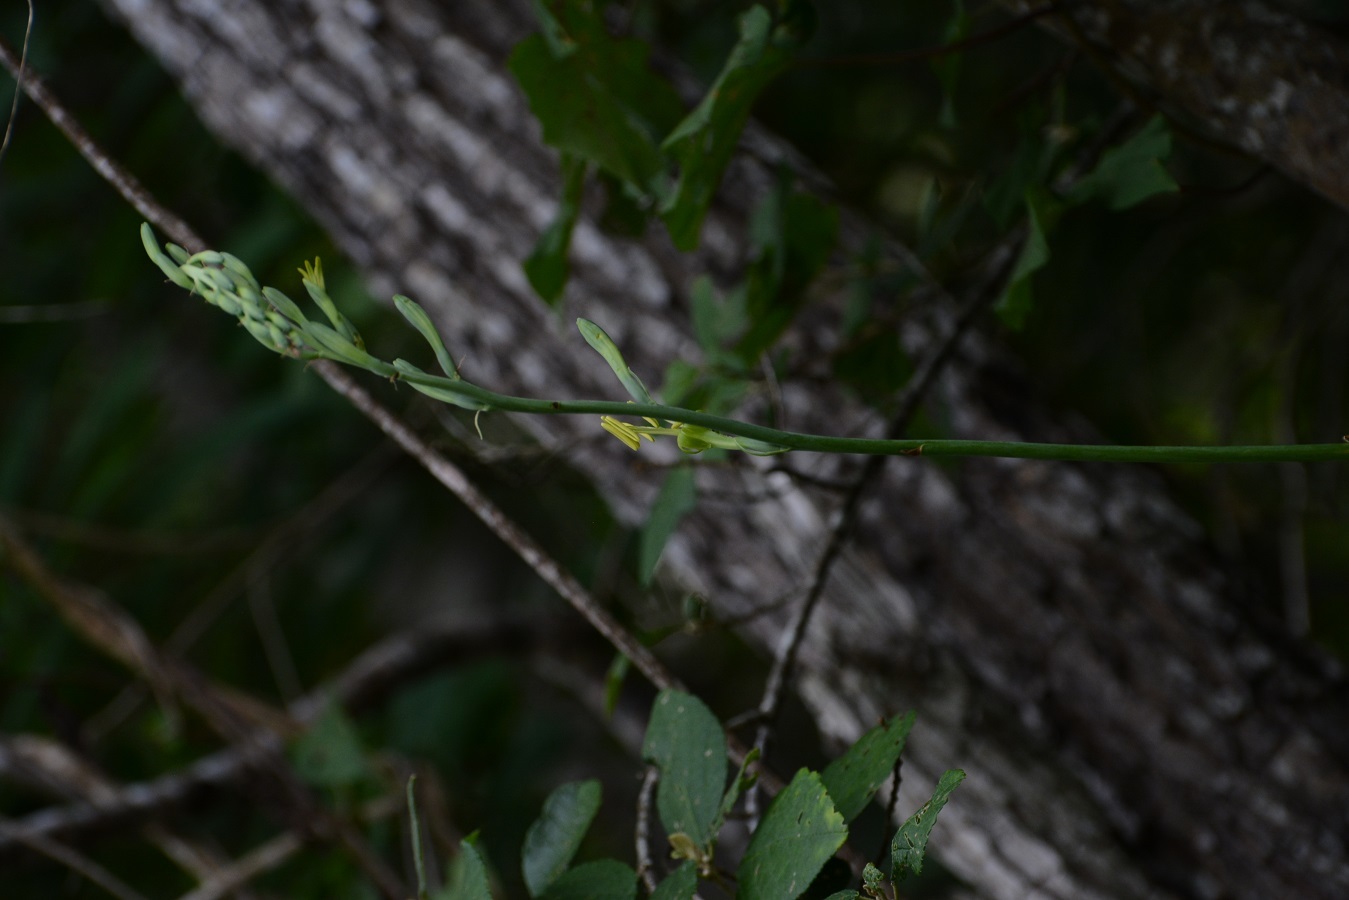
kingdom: Plantae
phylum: Tracheophyta
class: Liliopsida
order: Asparagales
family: Asparagaceae
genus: Agave
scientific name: Agave pubescens
